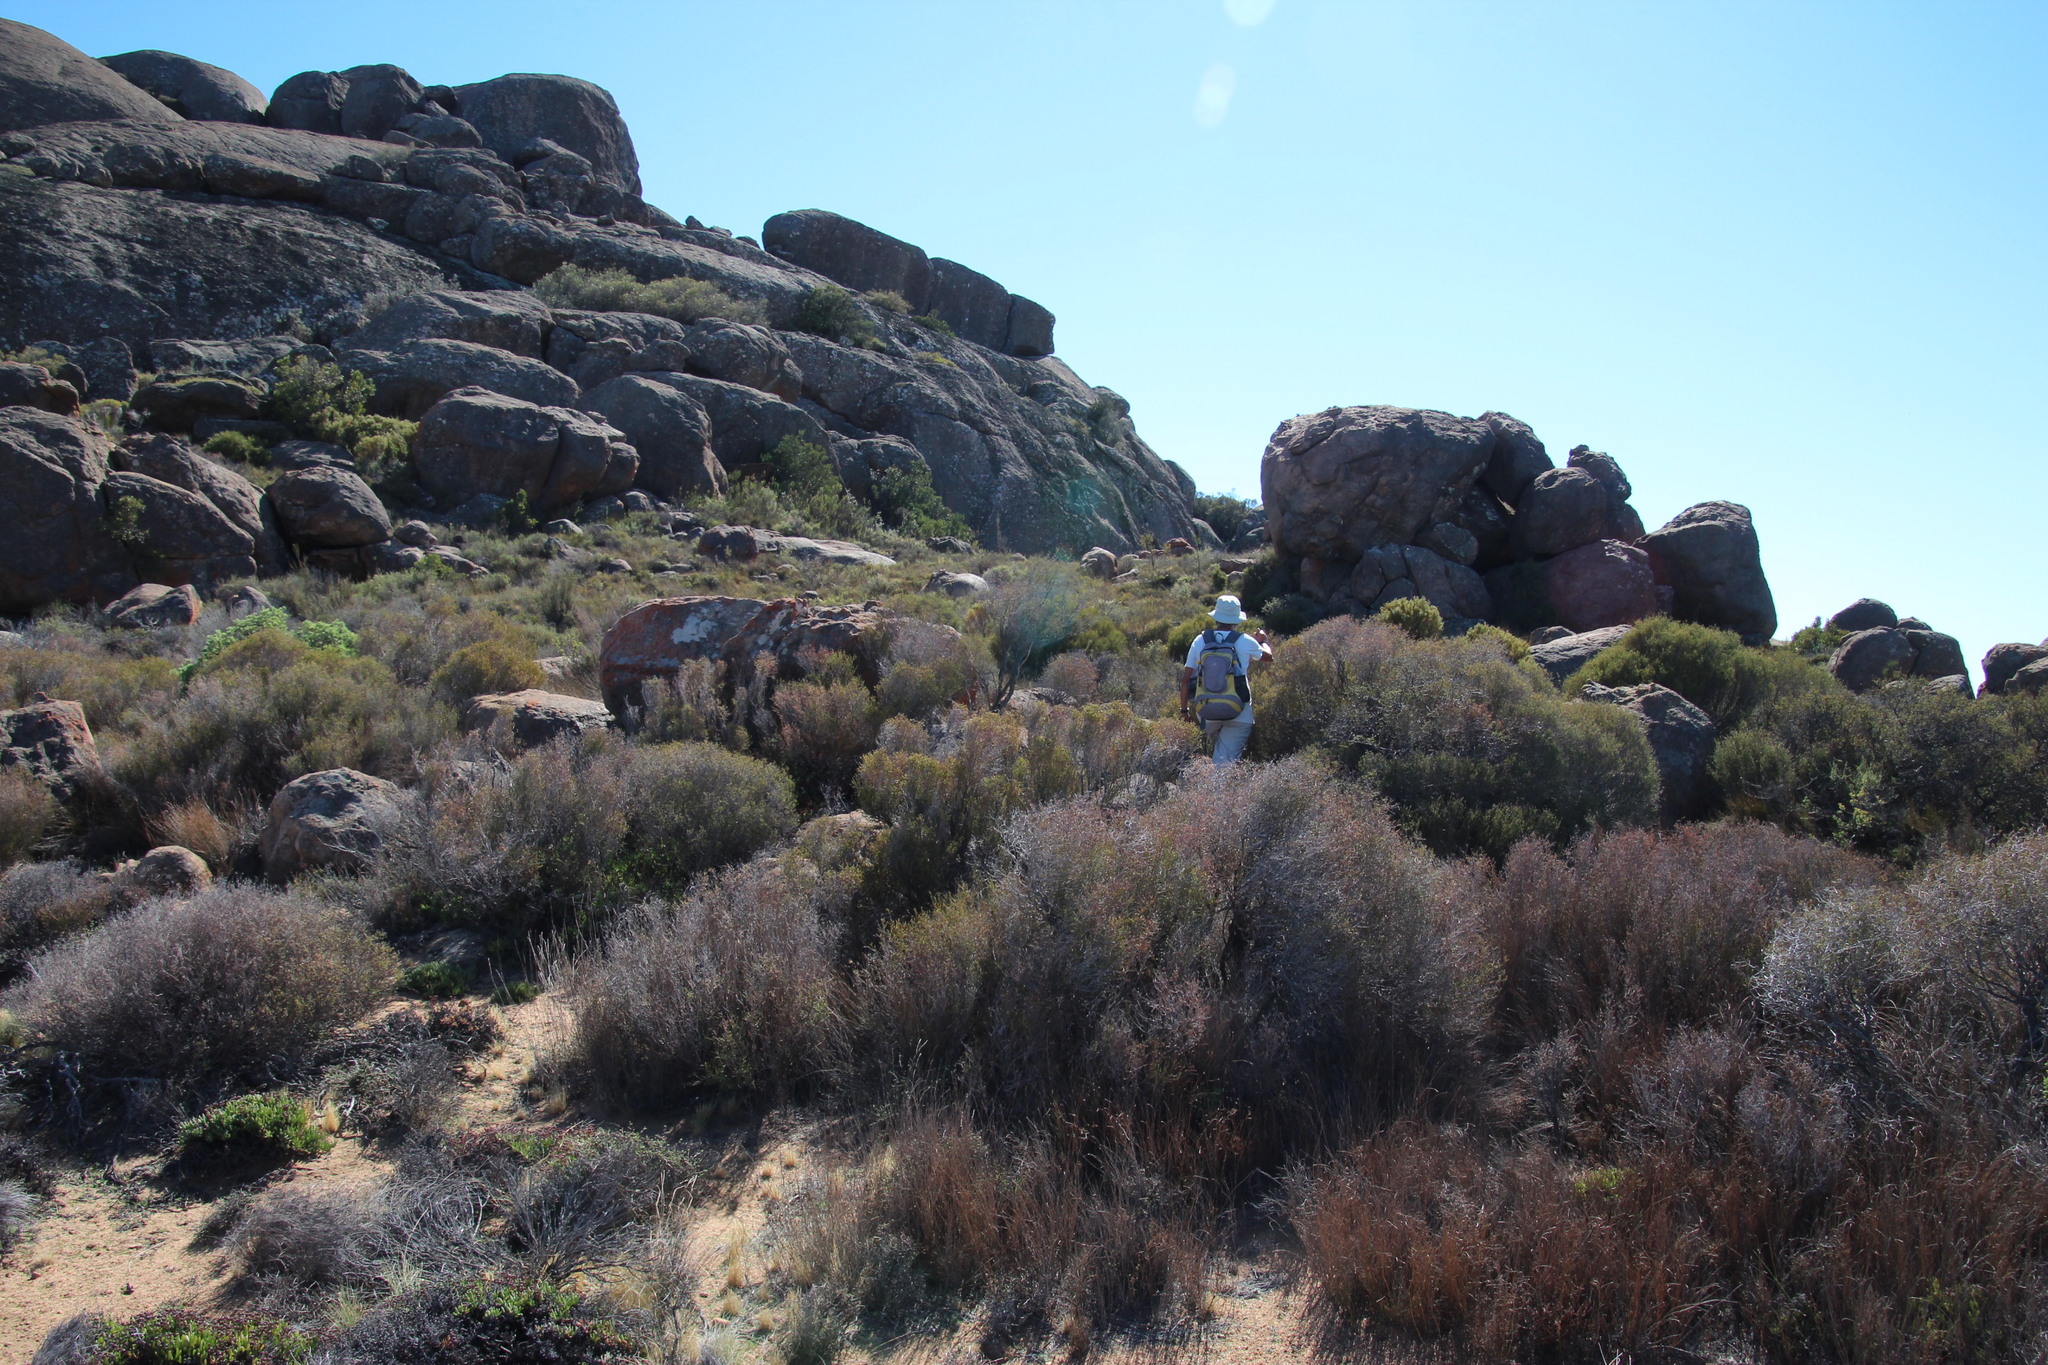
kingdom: Plantae
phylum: Tracheophyta
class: Magnoliopsida
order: Malvales
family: Thymelaeaceae
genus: Passerina
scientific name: Passerina truncata
